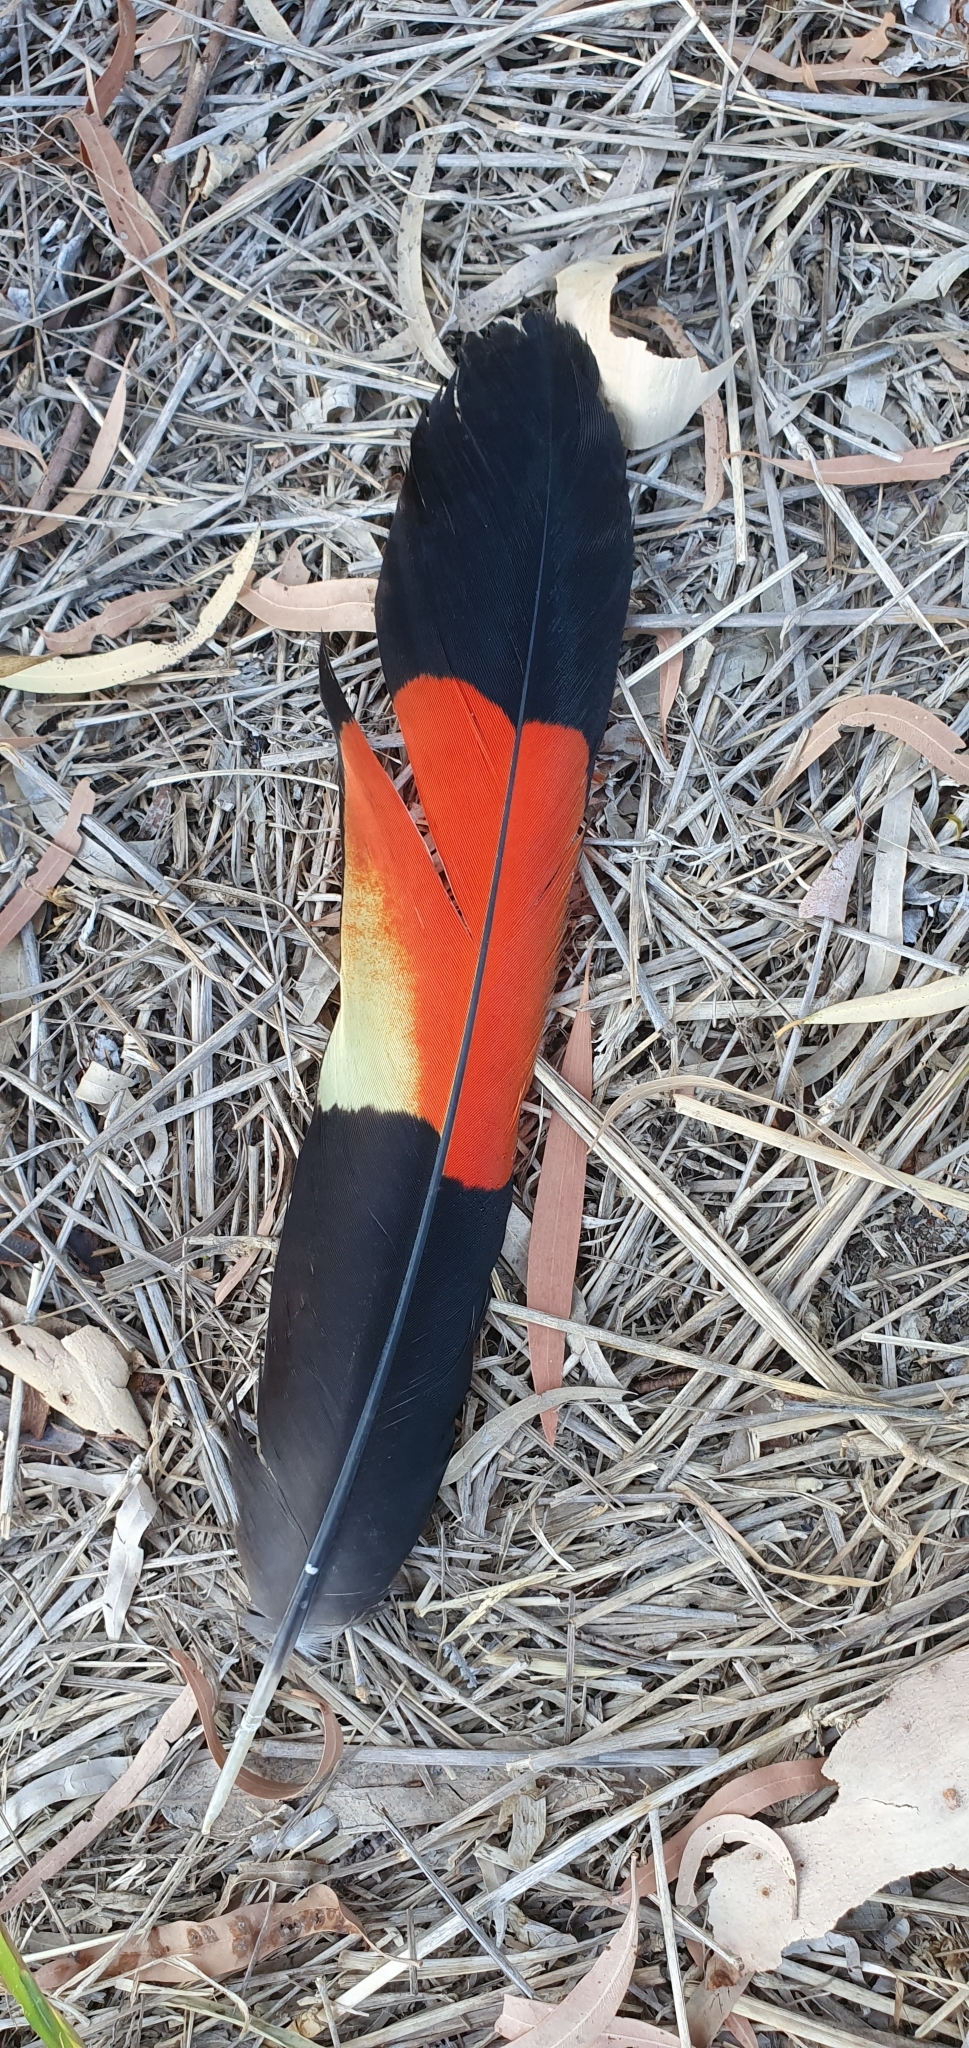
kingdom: Animalia
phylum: Chordata
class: Aves
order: Psittaciformes
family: Psittacidae
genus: Calyptorhynchus
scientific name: Calyptorhynchus banksii
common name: Red-tailed black cockatoo
